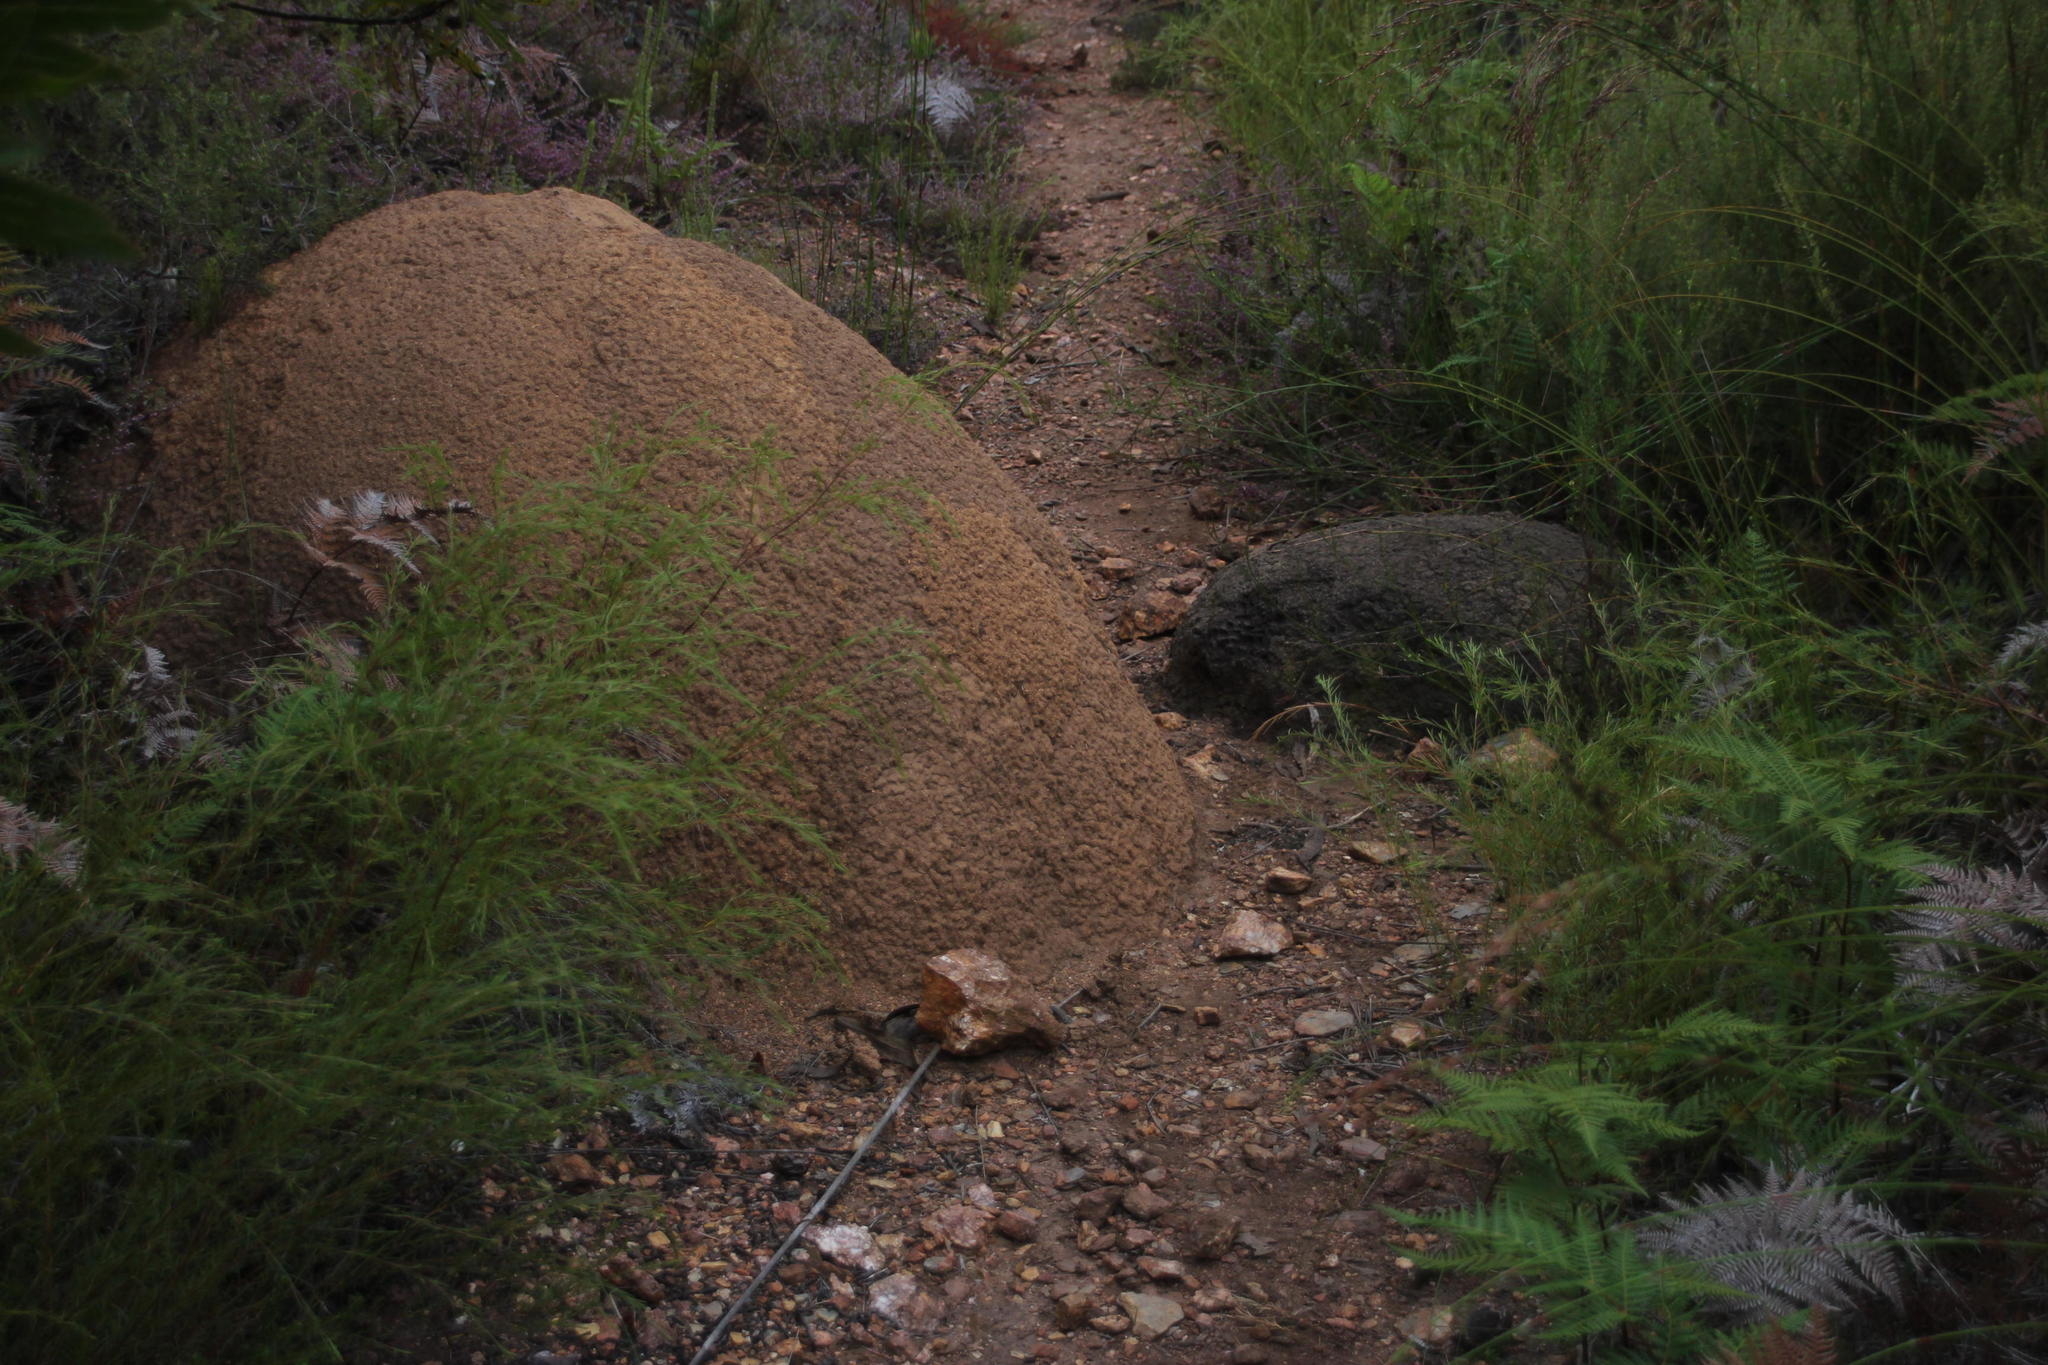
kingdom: Animalia
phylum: Arthropoda
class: Insecta
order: Blattodea
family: Termitidae
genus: Amitermes
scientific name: Amitermes hastatus
